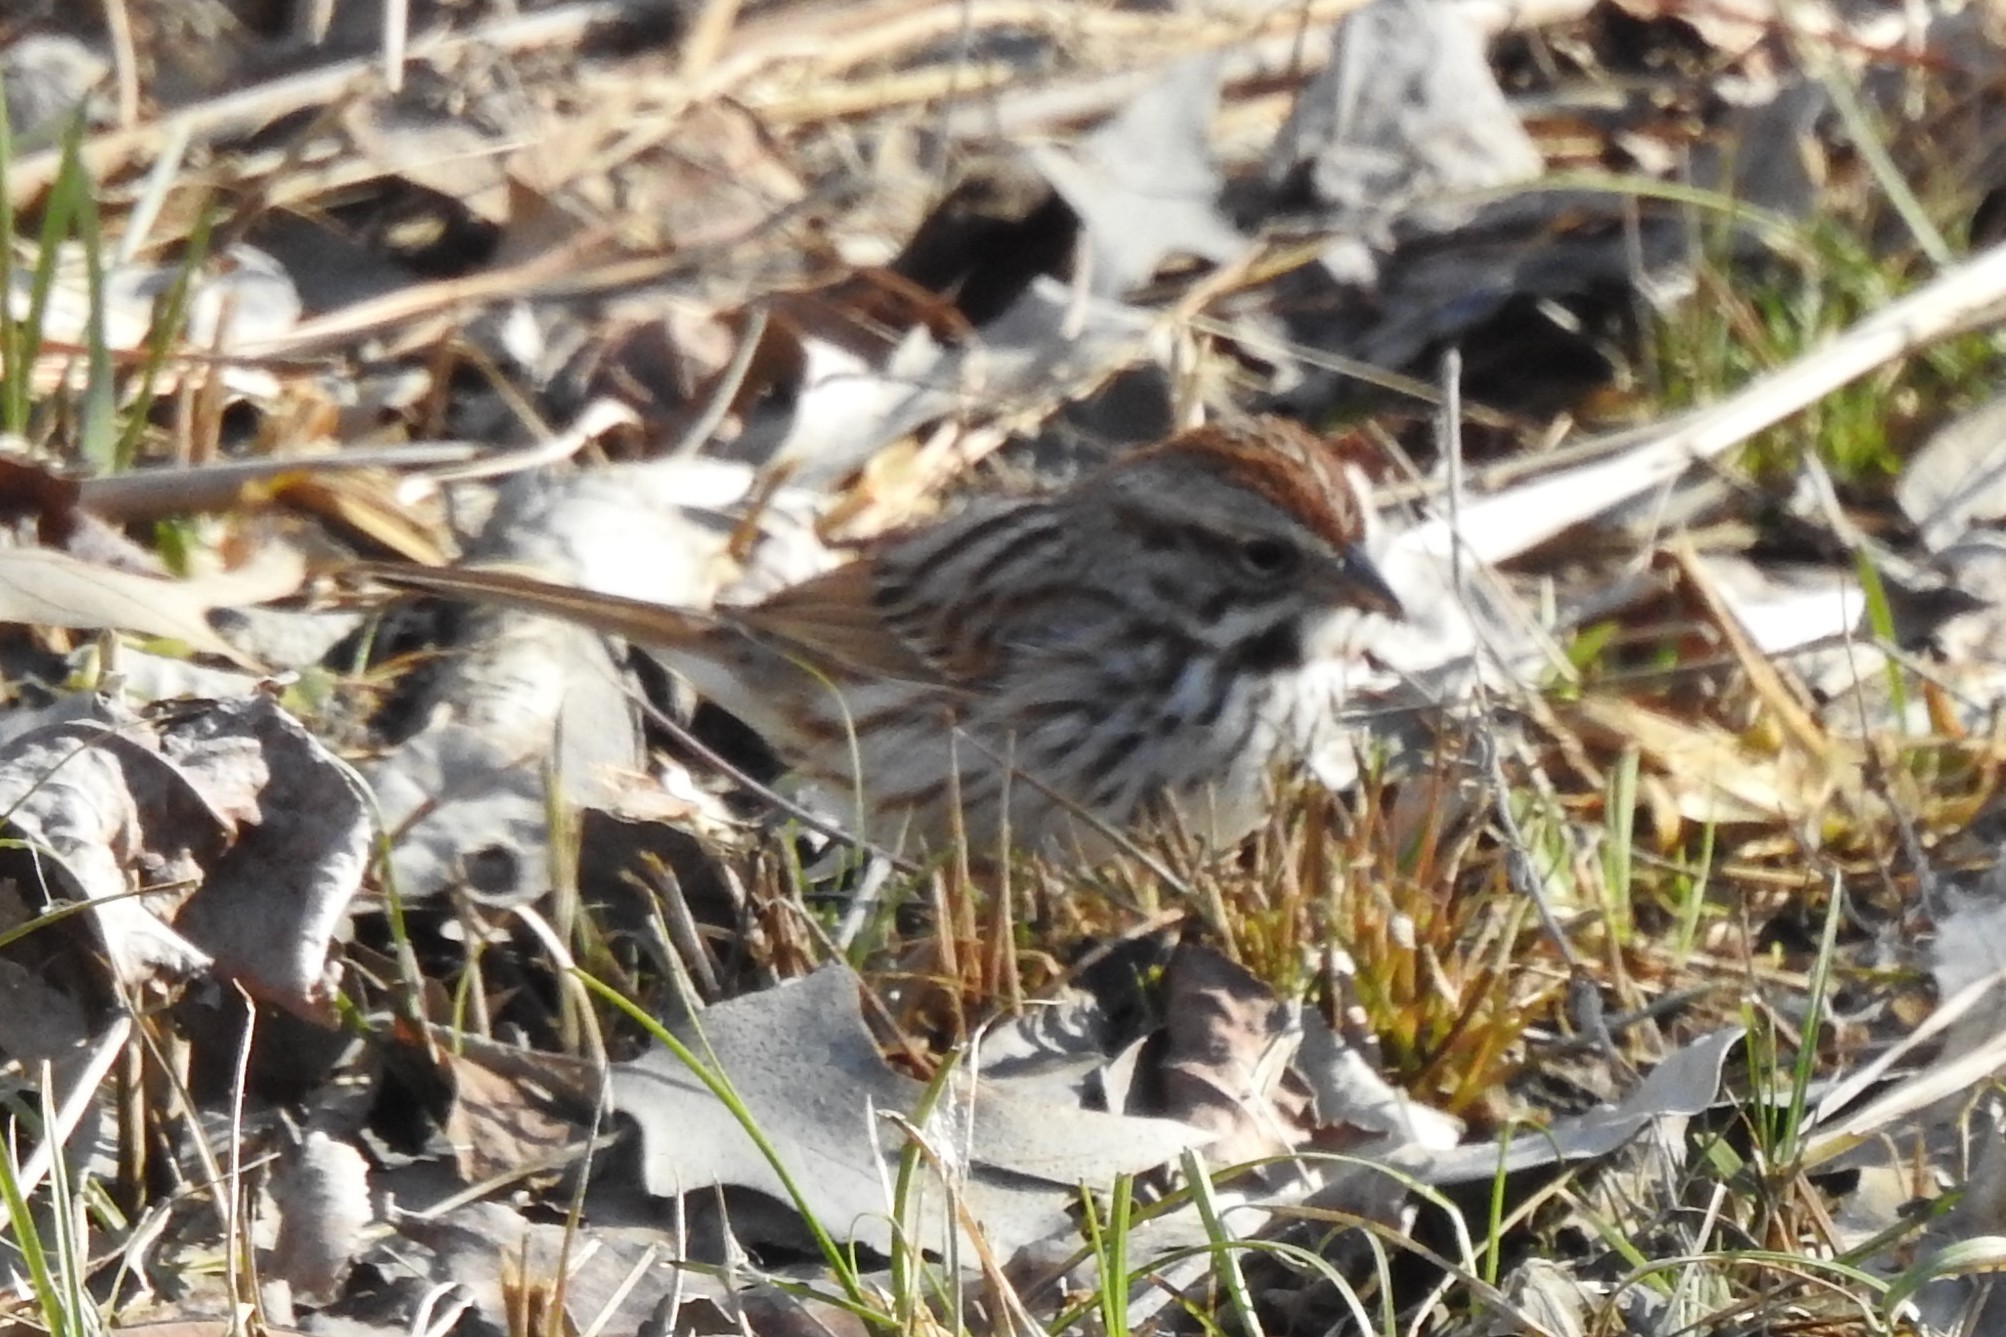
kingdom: Animalia
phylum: Chordata
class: Aves
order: Passeriformes
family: Passerellidae
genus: Melospiza
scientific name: Melospiza melodia
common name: Song sparrow
